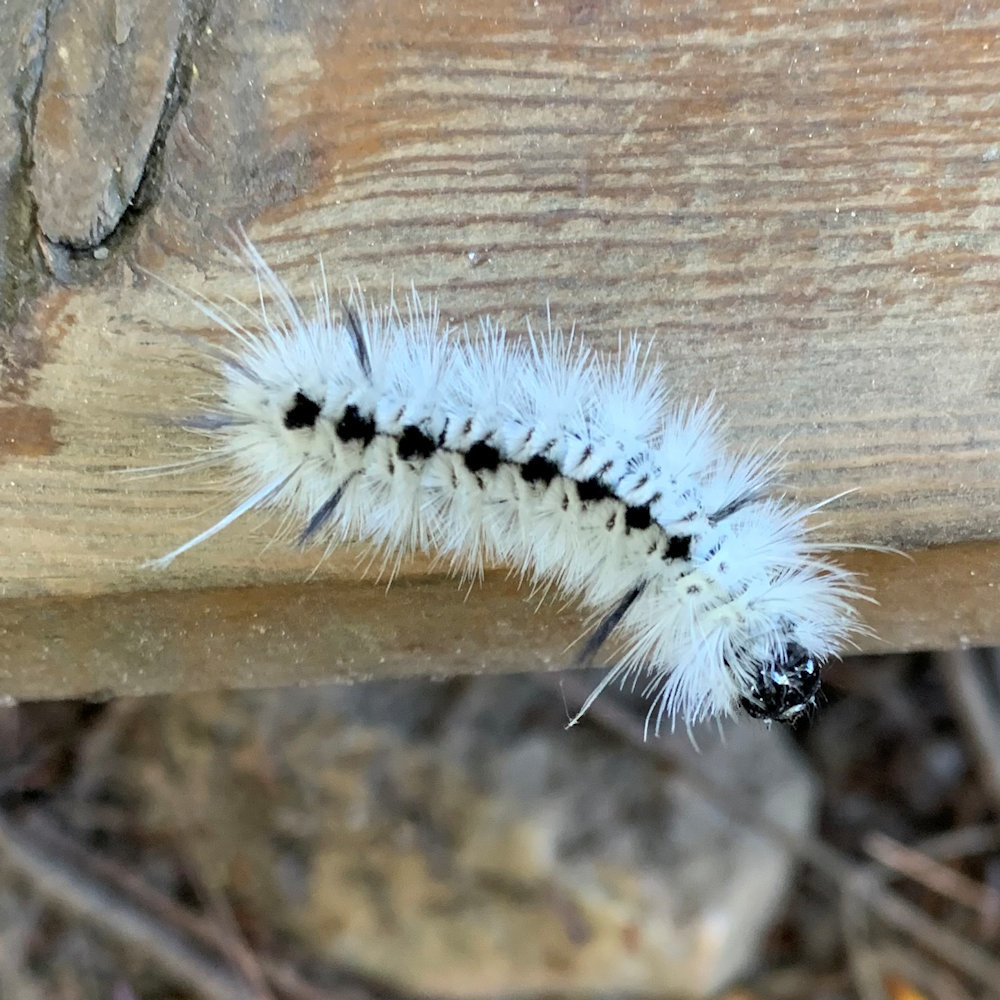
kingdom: Animalia
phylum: Arthropoda
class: Insecta
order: Lepidoptera
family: Erebidae
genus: Lophocampa
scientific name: Lophocampa caryae
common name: Hickory tussock moth
